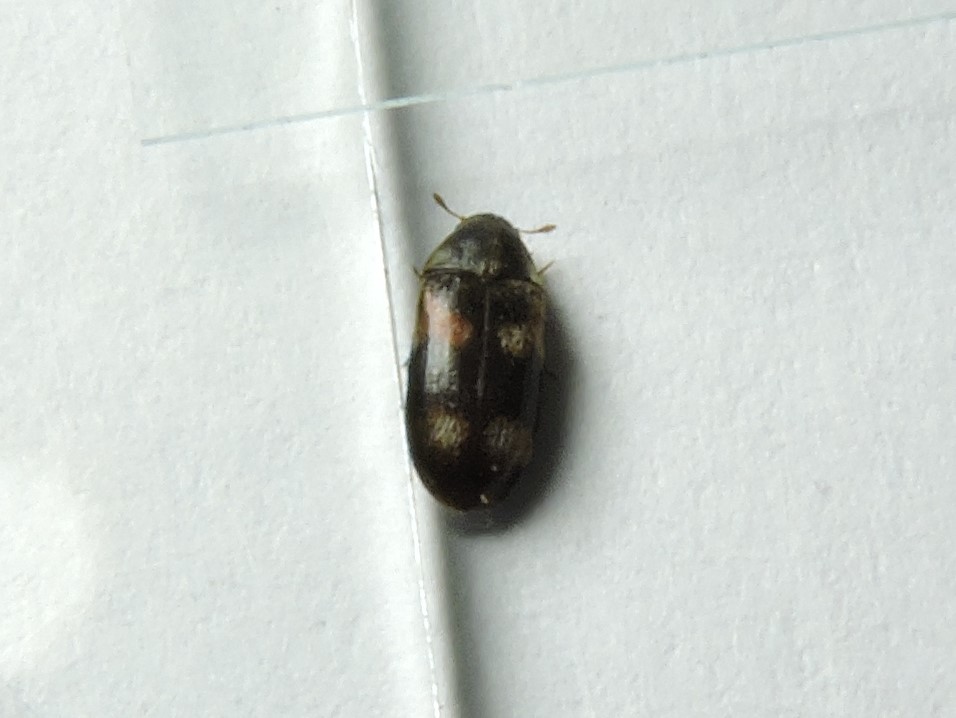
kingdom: Animalia
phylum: Arthropoda
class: Insecta
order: Coleoptera
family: Dermestidae
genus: Megatoma
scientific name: Megatoma tianschanica
